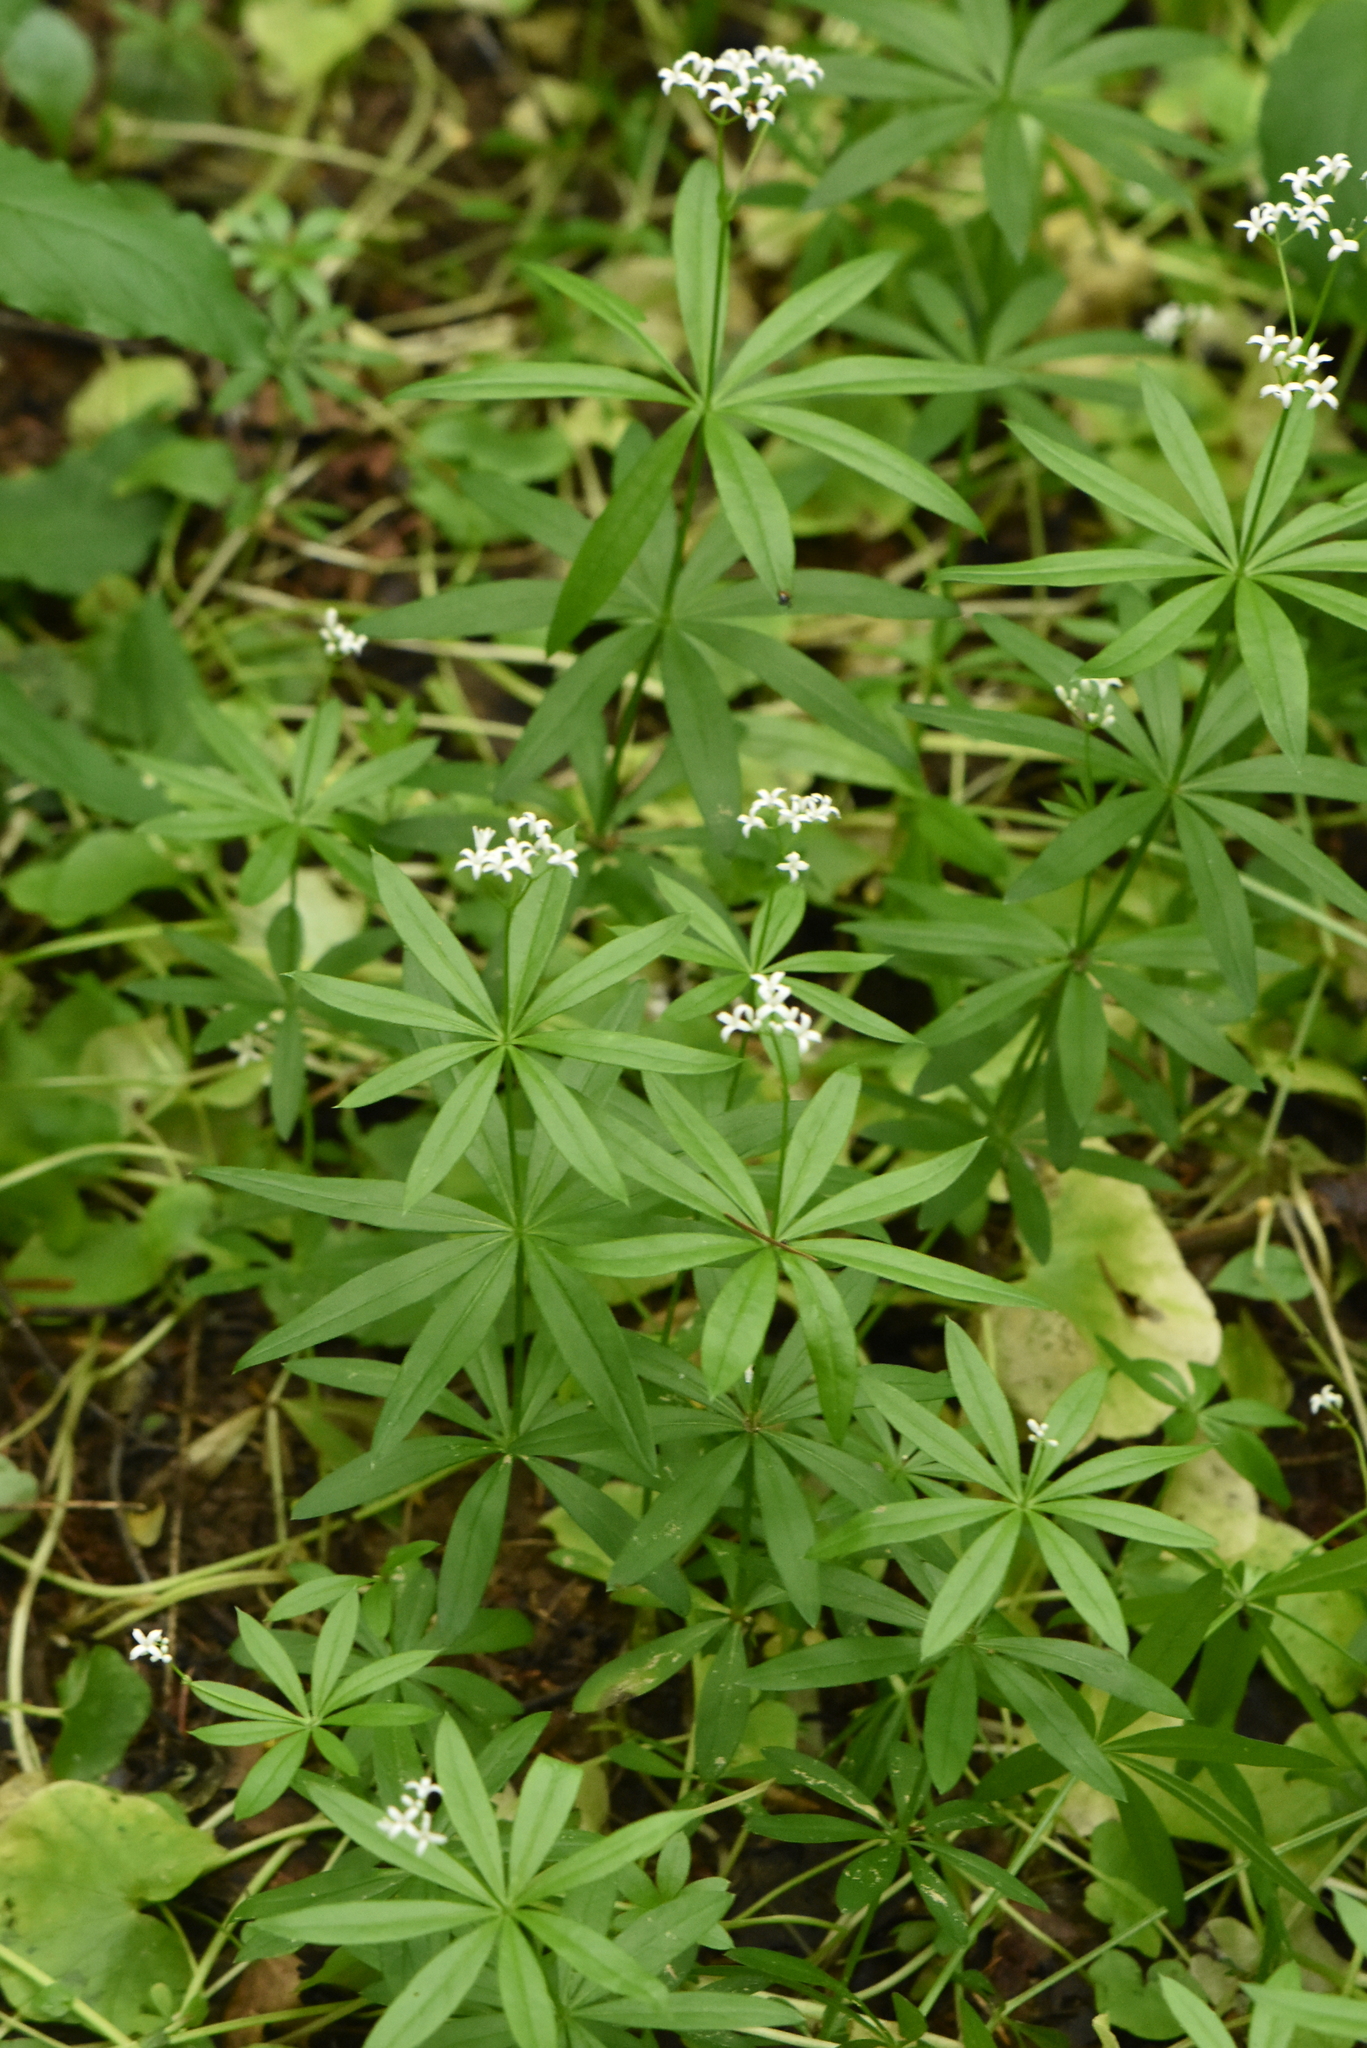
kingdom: Plantae
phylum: Tracheophyta
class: Magnoliopsida
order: Gentianales
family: Rubiaceae
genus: Galium
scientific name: Galium odoratum
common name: Sweet woodruff
